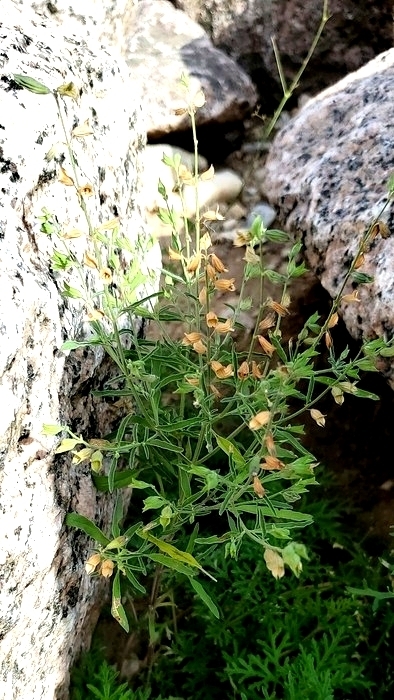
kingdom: Plantae
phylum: Tracheophyta
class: Magnoliopsida
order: Lamiales
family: Lamiaceae
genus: Salvia
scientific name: Salvia reflexa
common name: Mintweed
